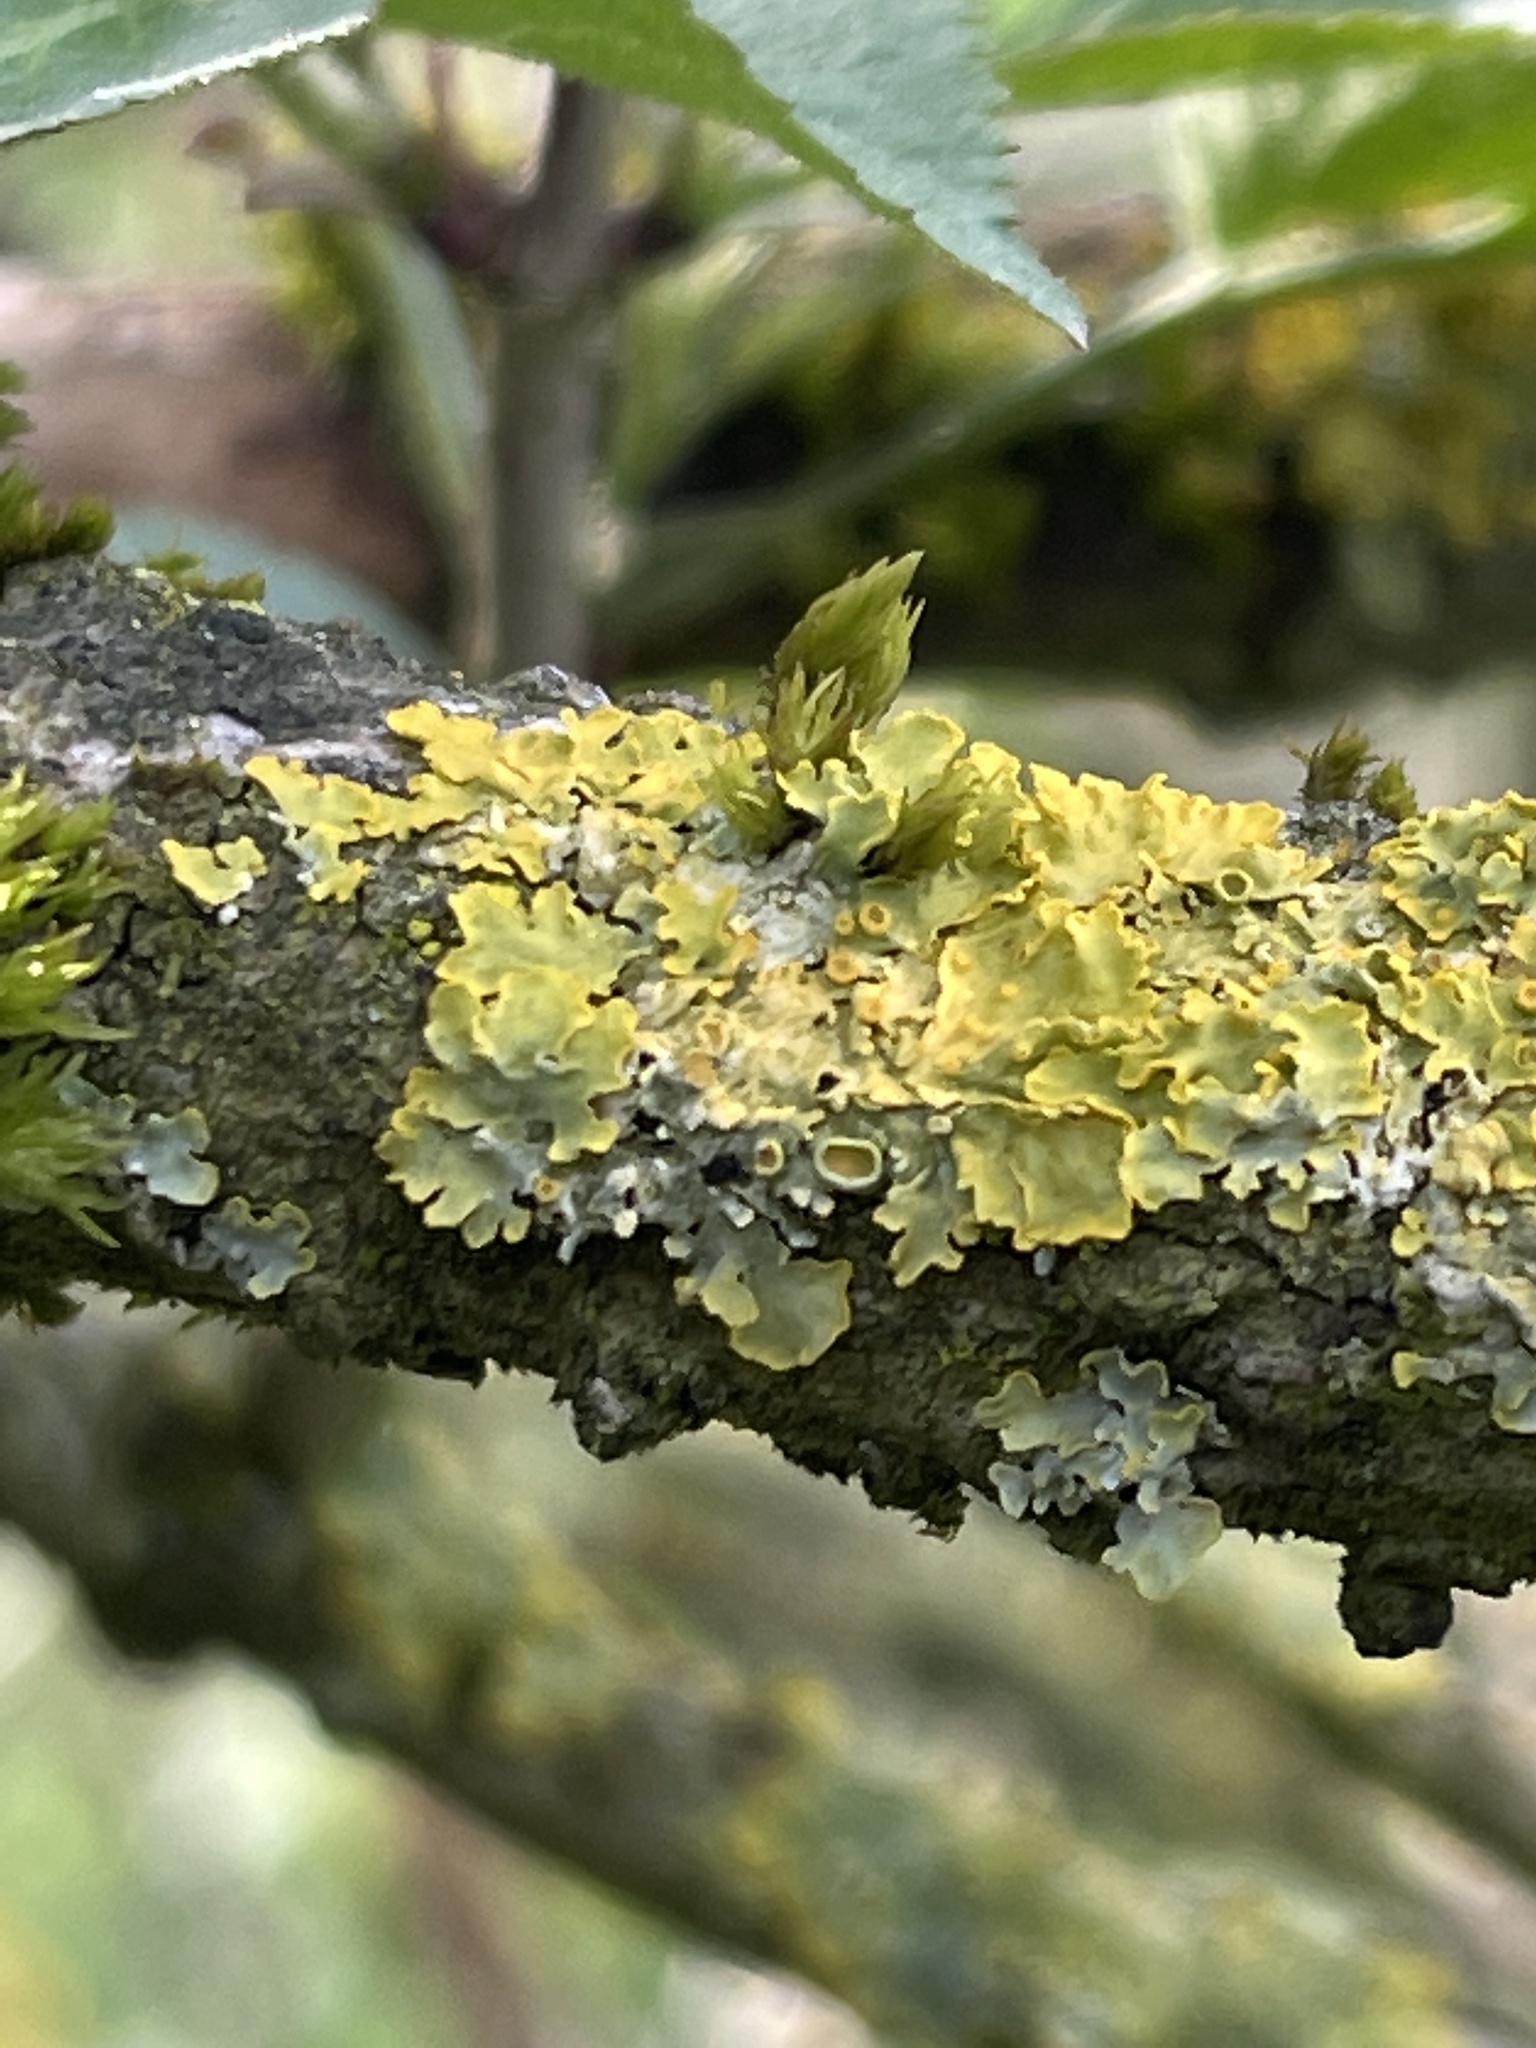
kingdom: Fungi
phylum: Ascomycota
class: Lecanoromycetes
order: Teloschistales
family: Teloschistaceae
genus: Xanthoria
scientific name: Xanthoria parietina
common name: Common orange lichen
